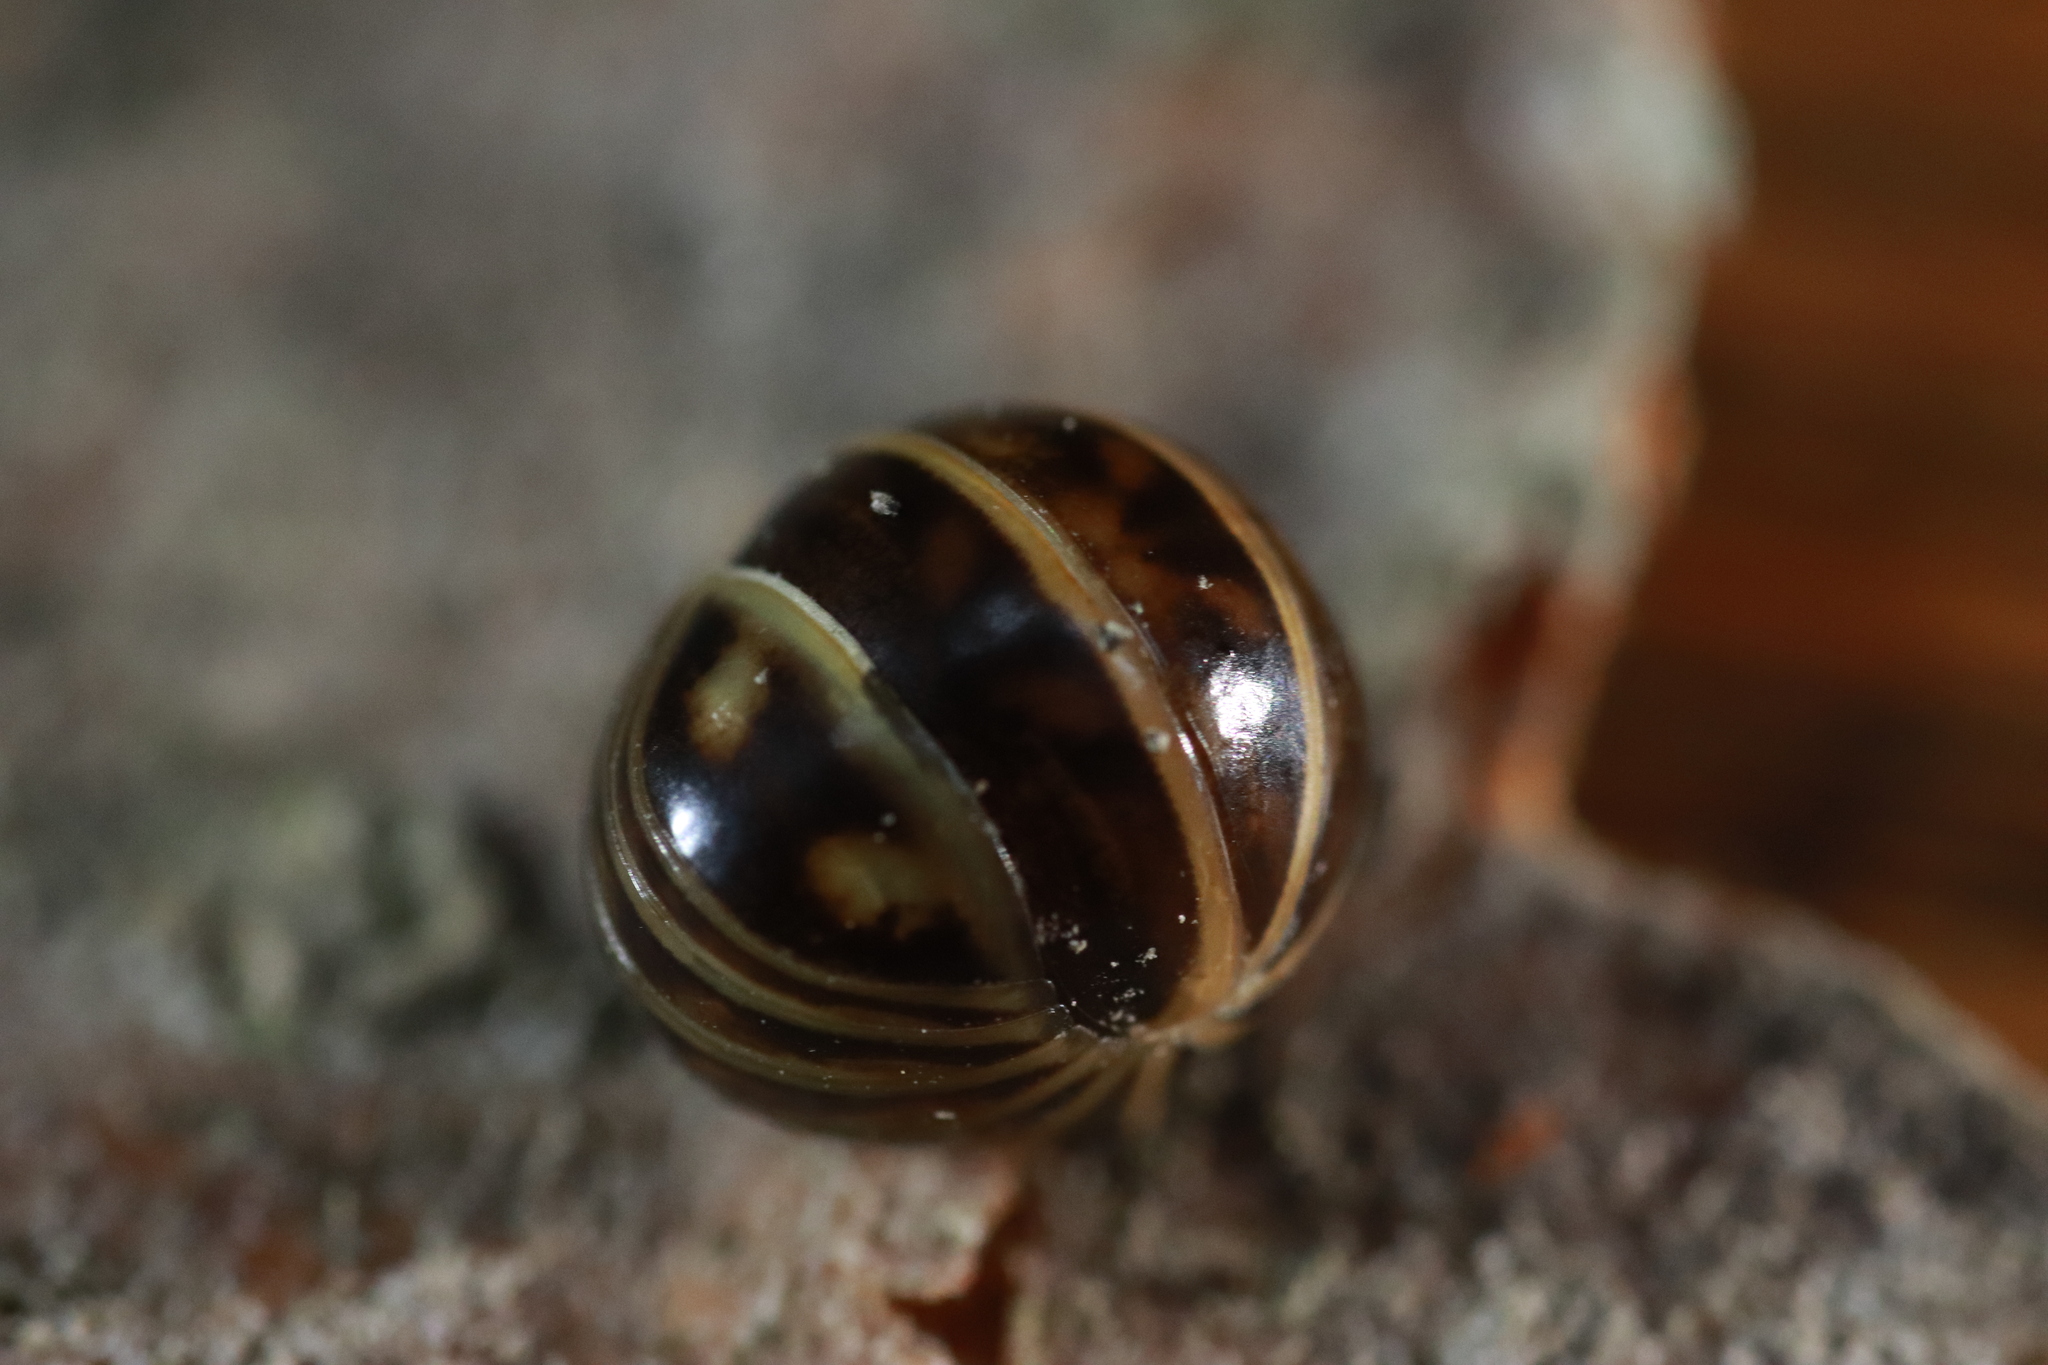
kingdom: Animalia
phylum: Arthropoda
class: Diplopoda
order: Glomerida
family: Glomeridae
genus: Glomeris
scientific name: Glomeris marginata
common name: Bordered pill millipede
